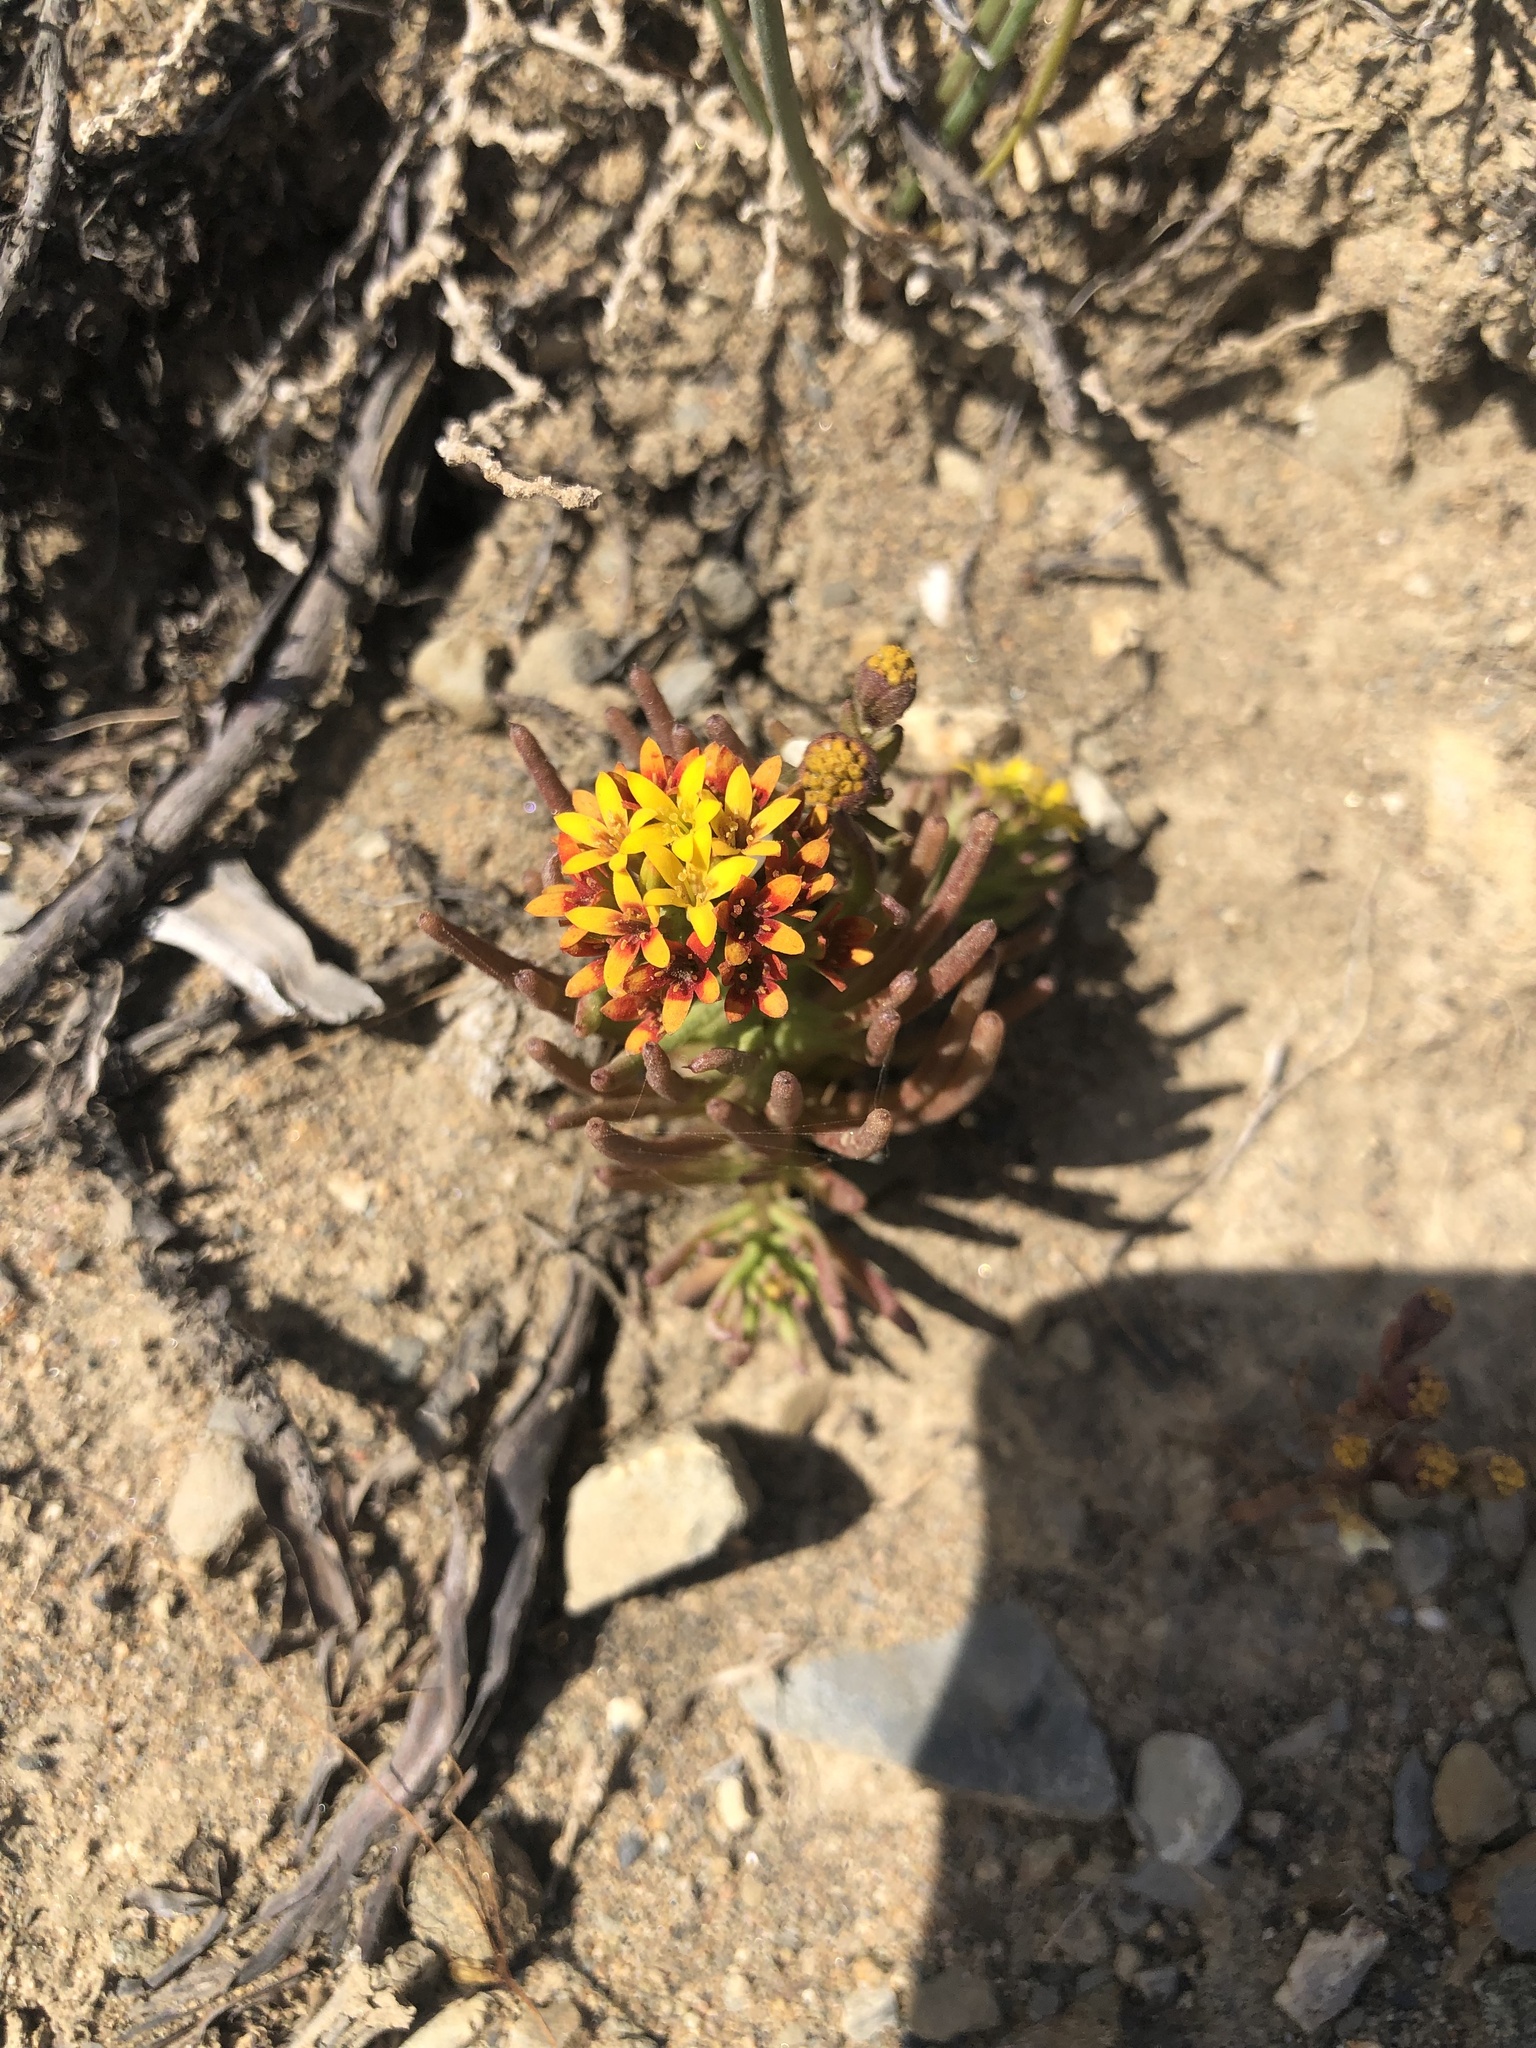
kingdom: Plantae
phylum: Tracheophyta
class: Magnoliopsida
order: Santalales
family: Schoepfiaceae
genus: Quinchamalium
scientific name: Quinchamalium chilense
